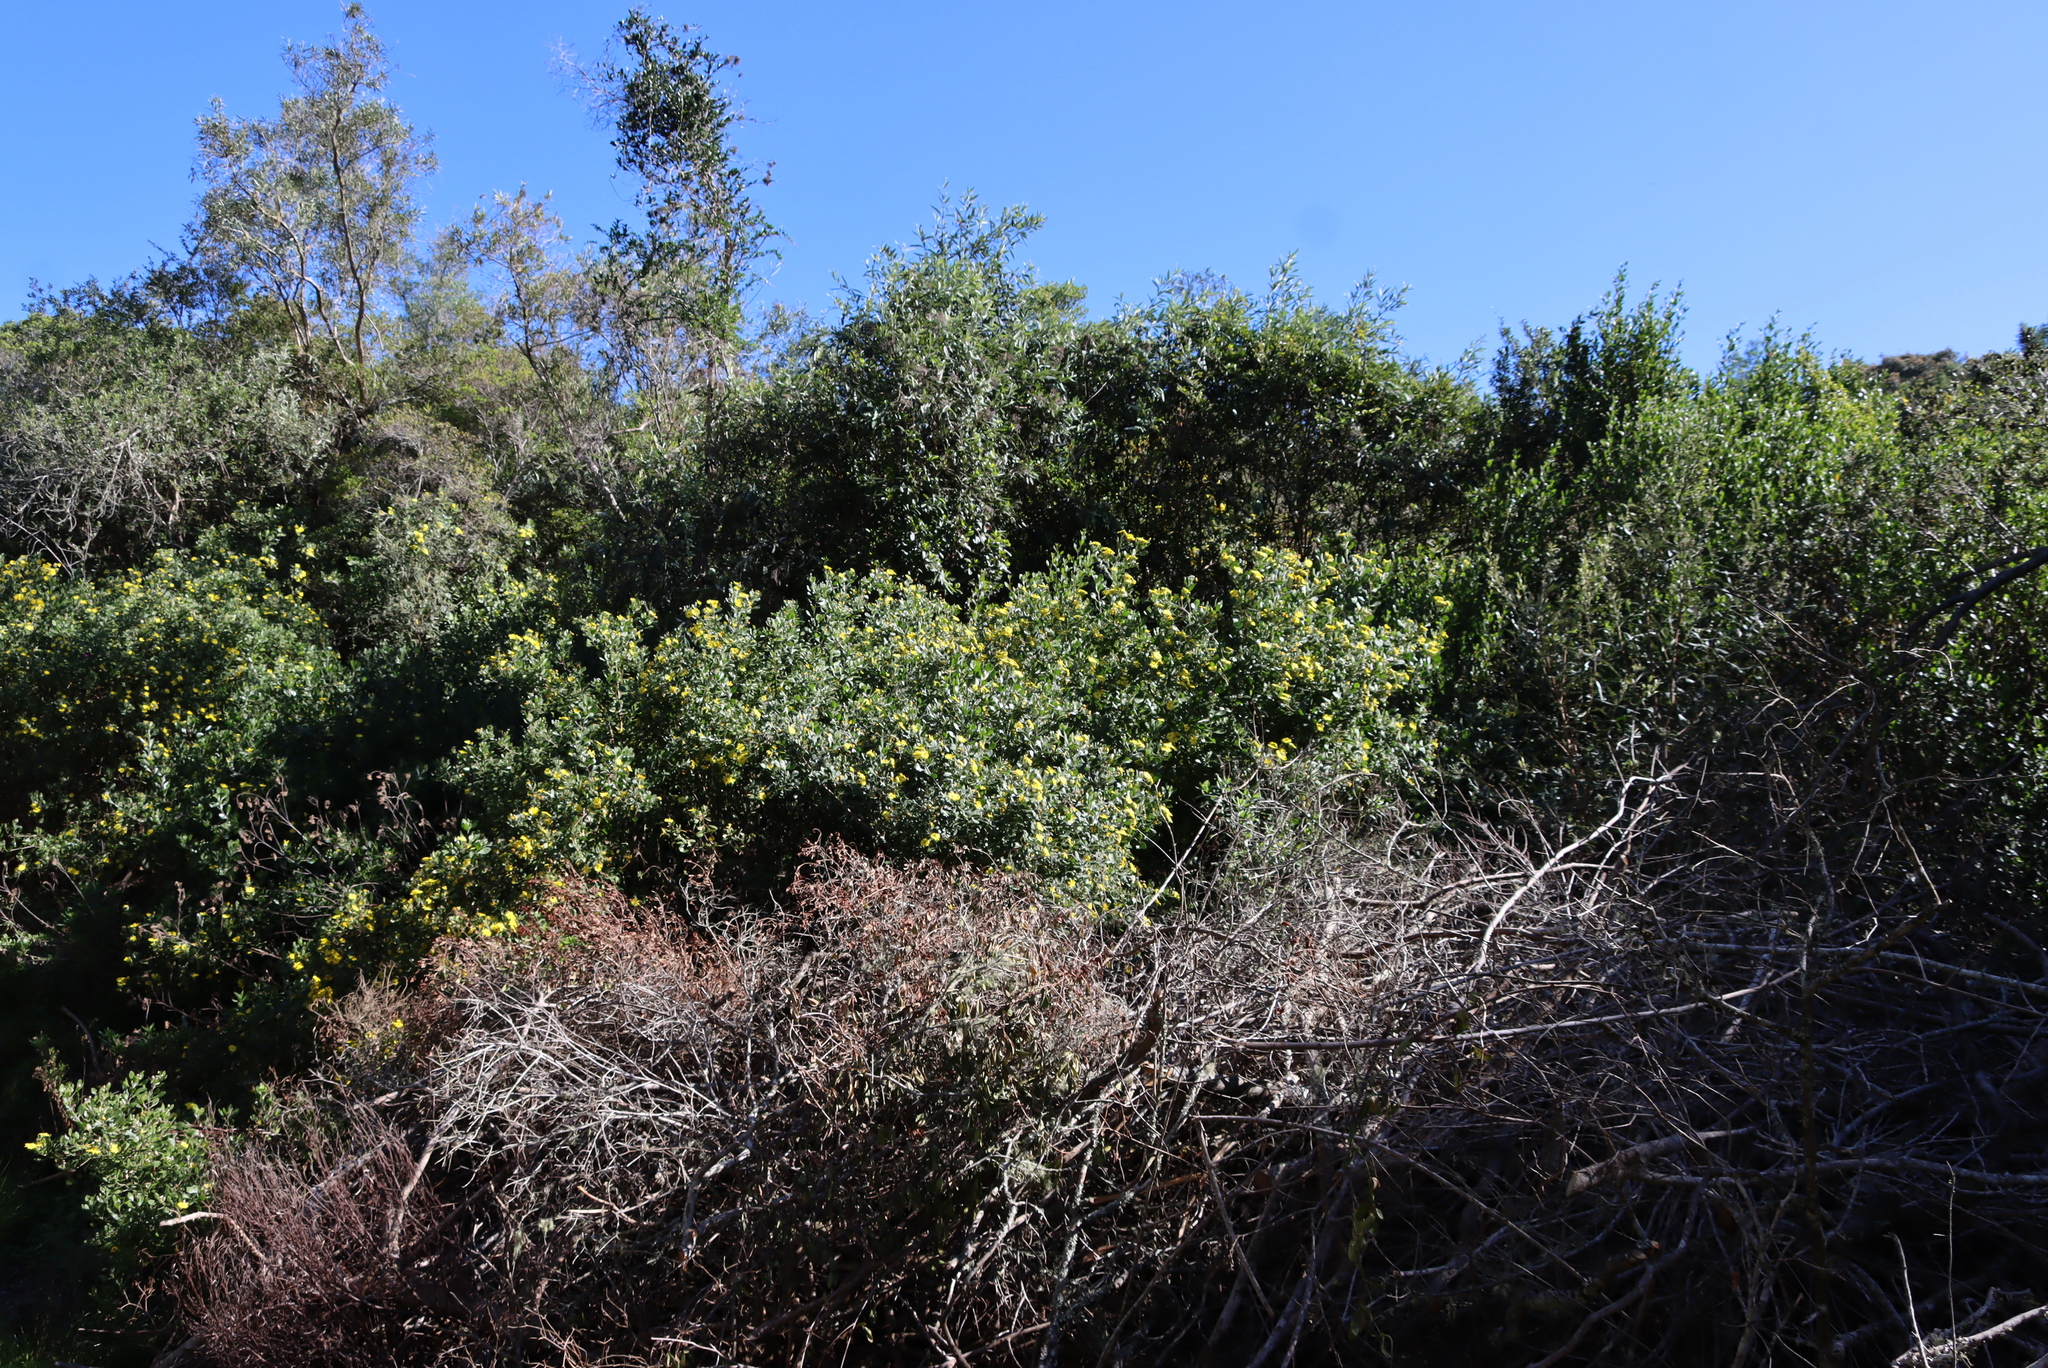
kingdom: Plantae
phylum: Tracheophyta
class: Magnoliopsida
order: Asterales
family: Asteraceae
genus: Osteospermum
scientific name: Osteospermum moniliferum
